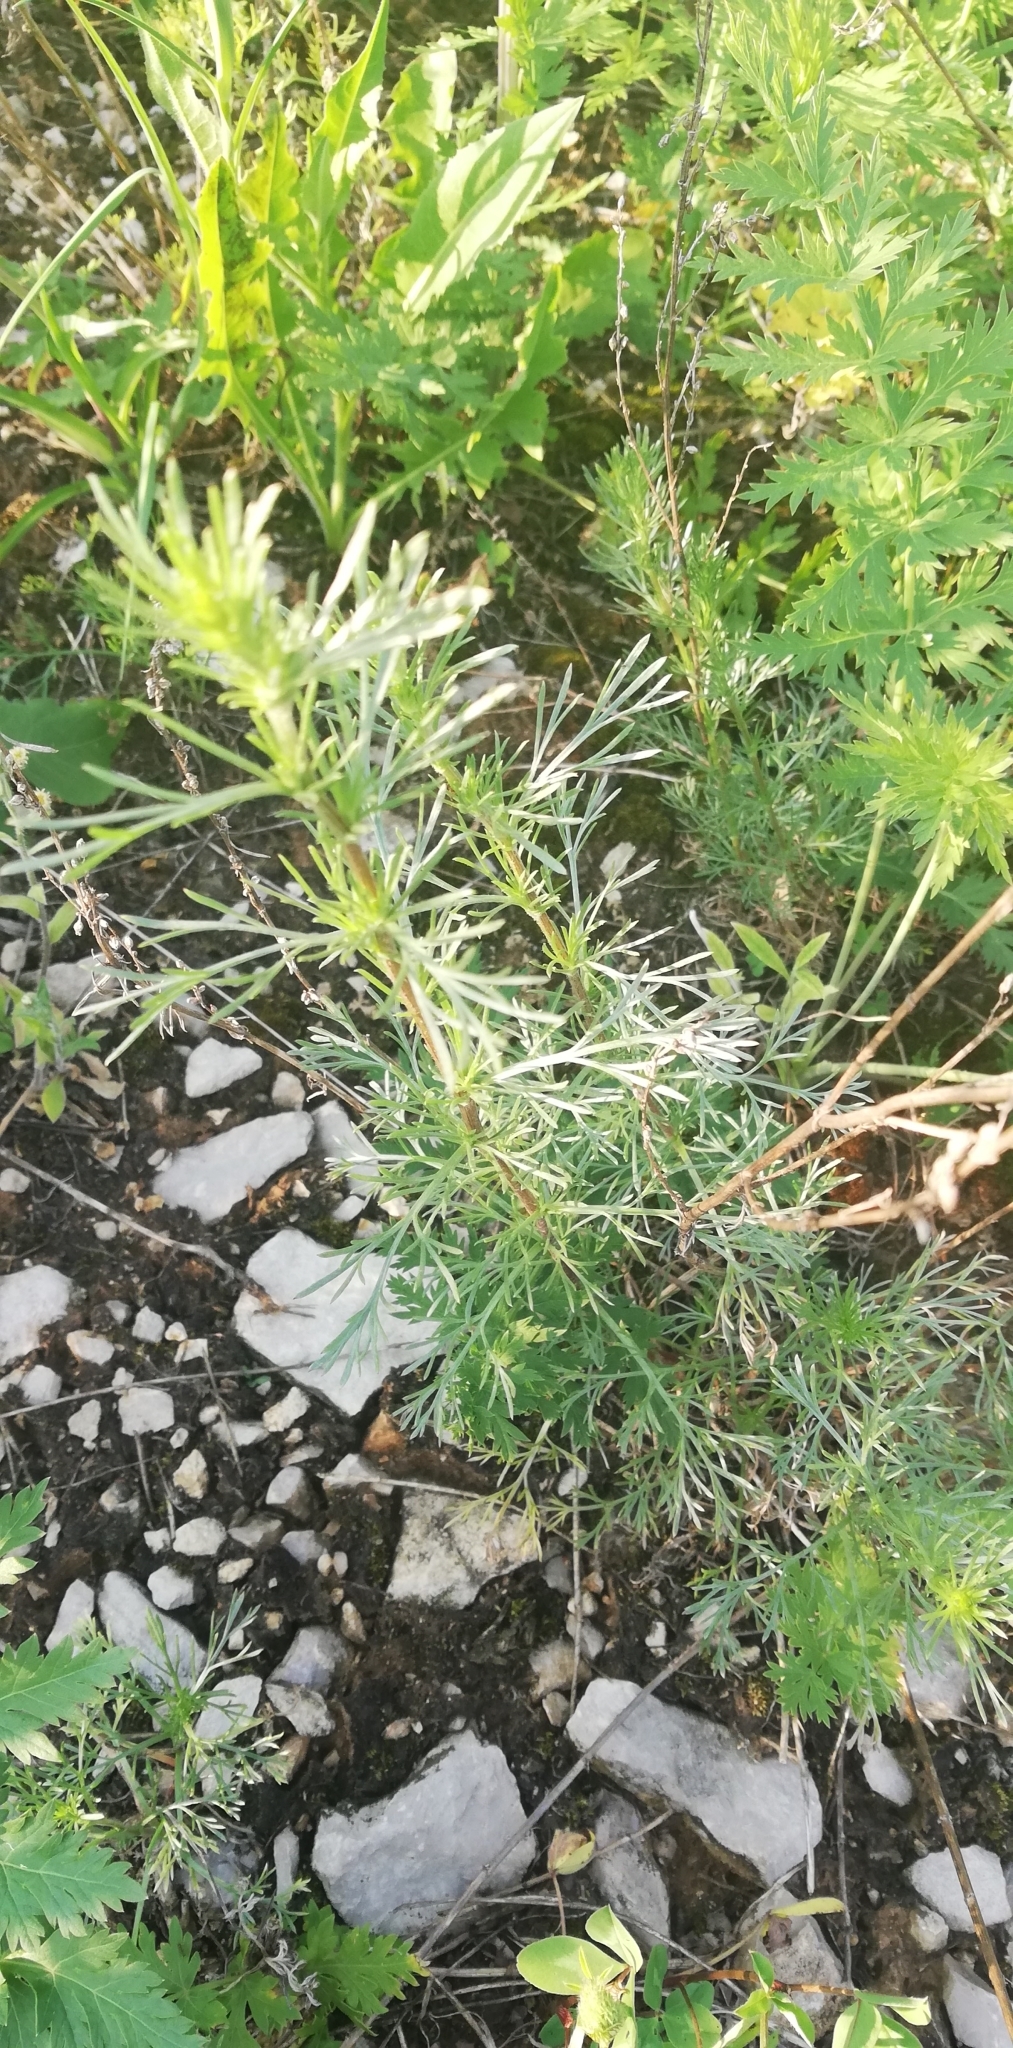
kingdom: Plantae
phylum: Tracheophyta
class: Magnoliopsida
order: Asterales
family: Asteraceae
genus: Artemisia
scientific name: Artemisia campestris
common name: Field wormwood
